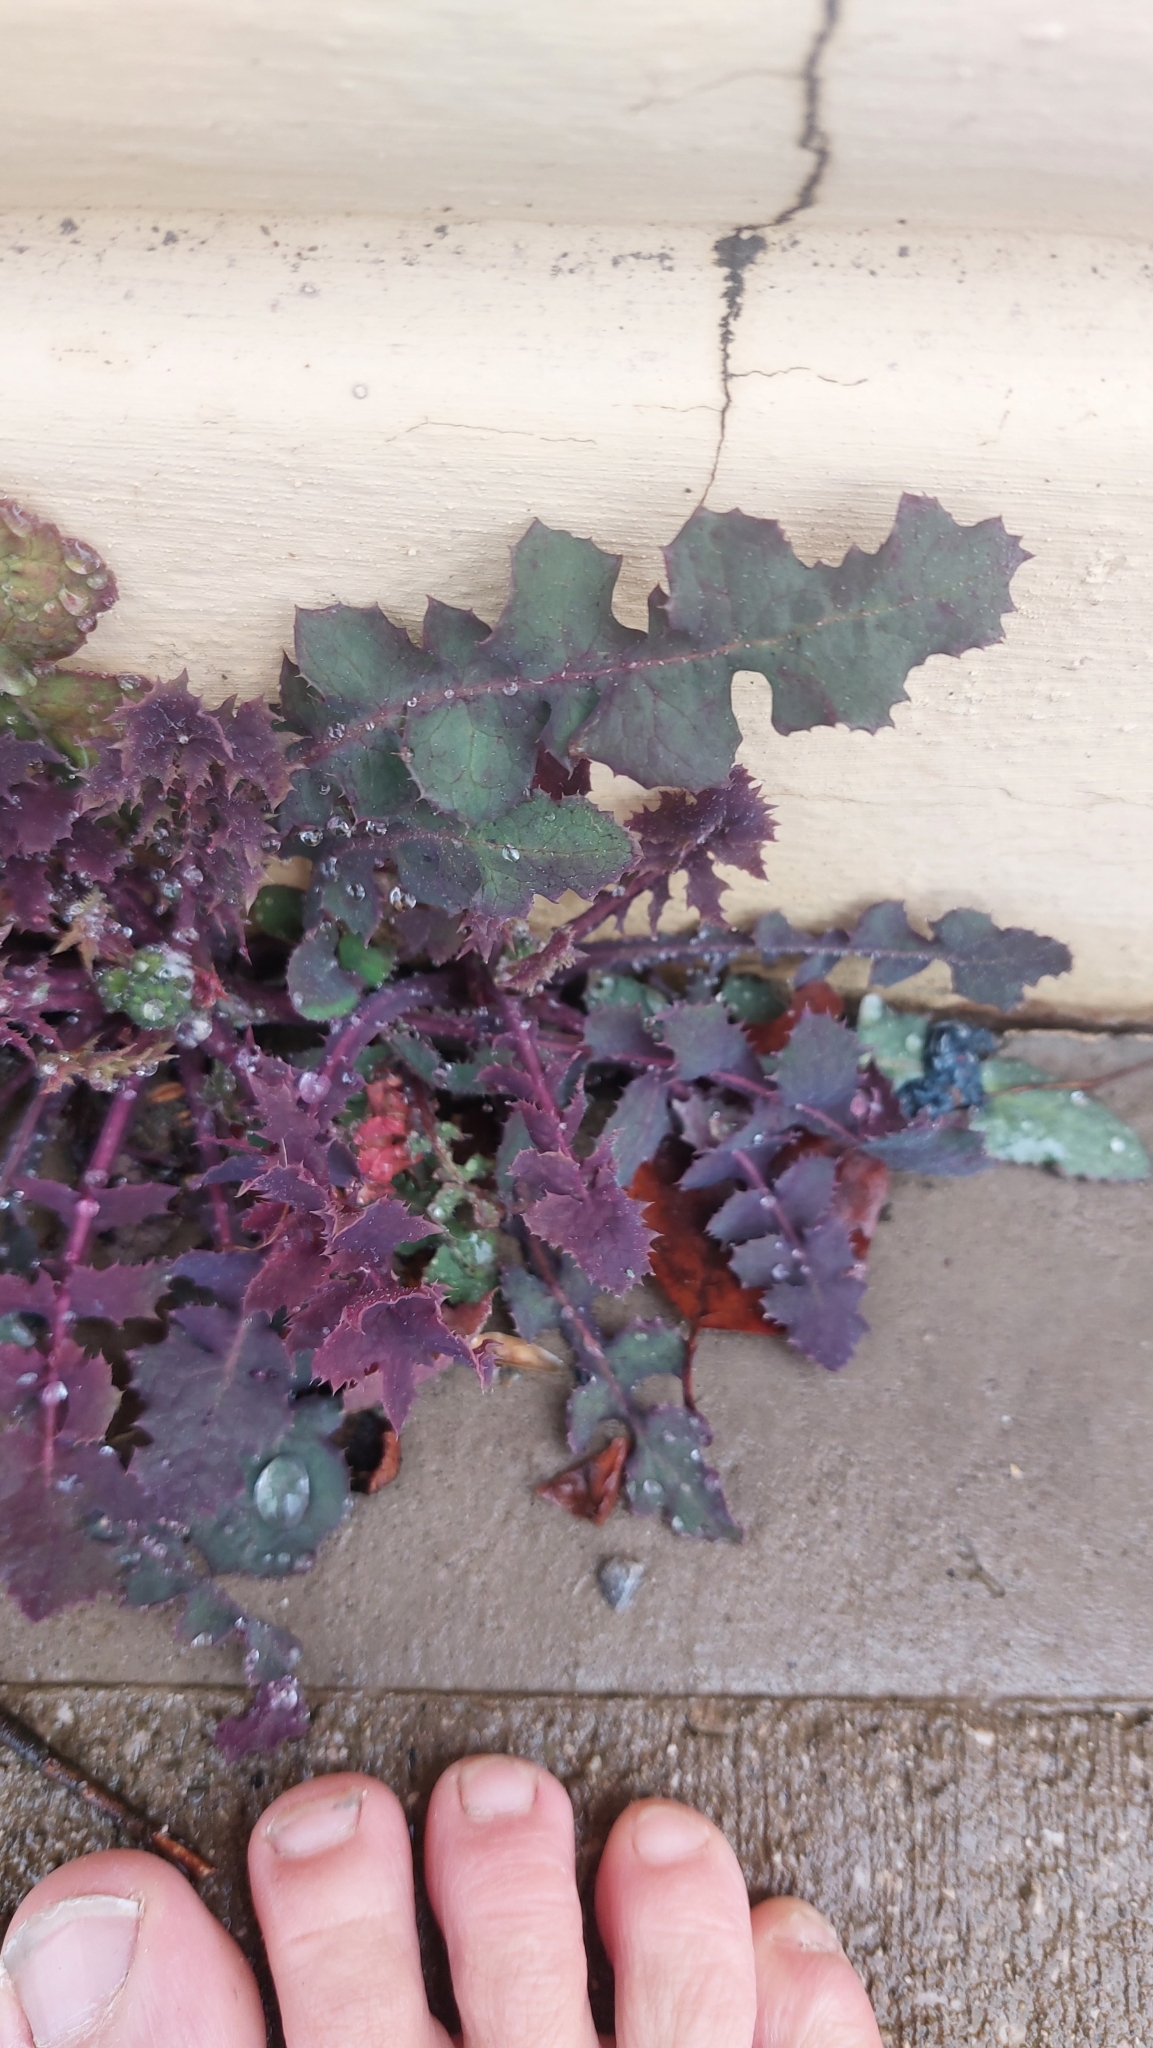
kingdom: Plantae
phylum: Tracheophyta
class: Magnoliopsida
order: Asterales
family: Asteraceae
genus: Sonchus
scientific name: Sonchus oleraceus
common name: Common sowthistle
